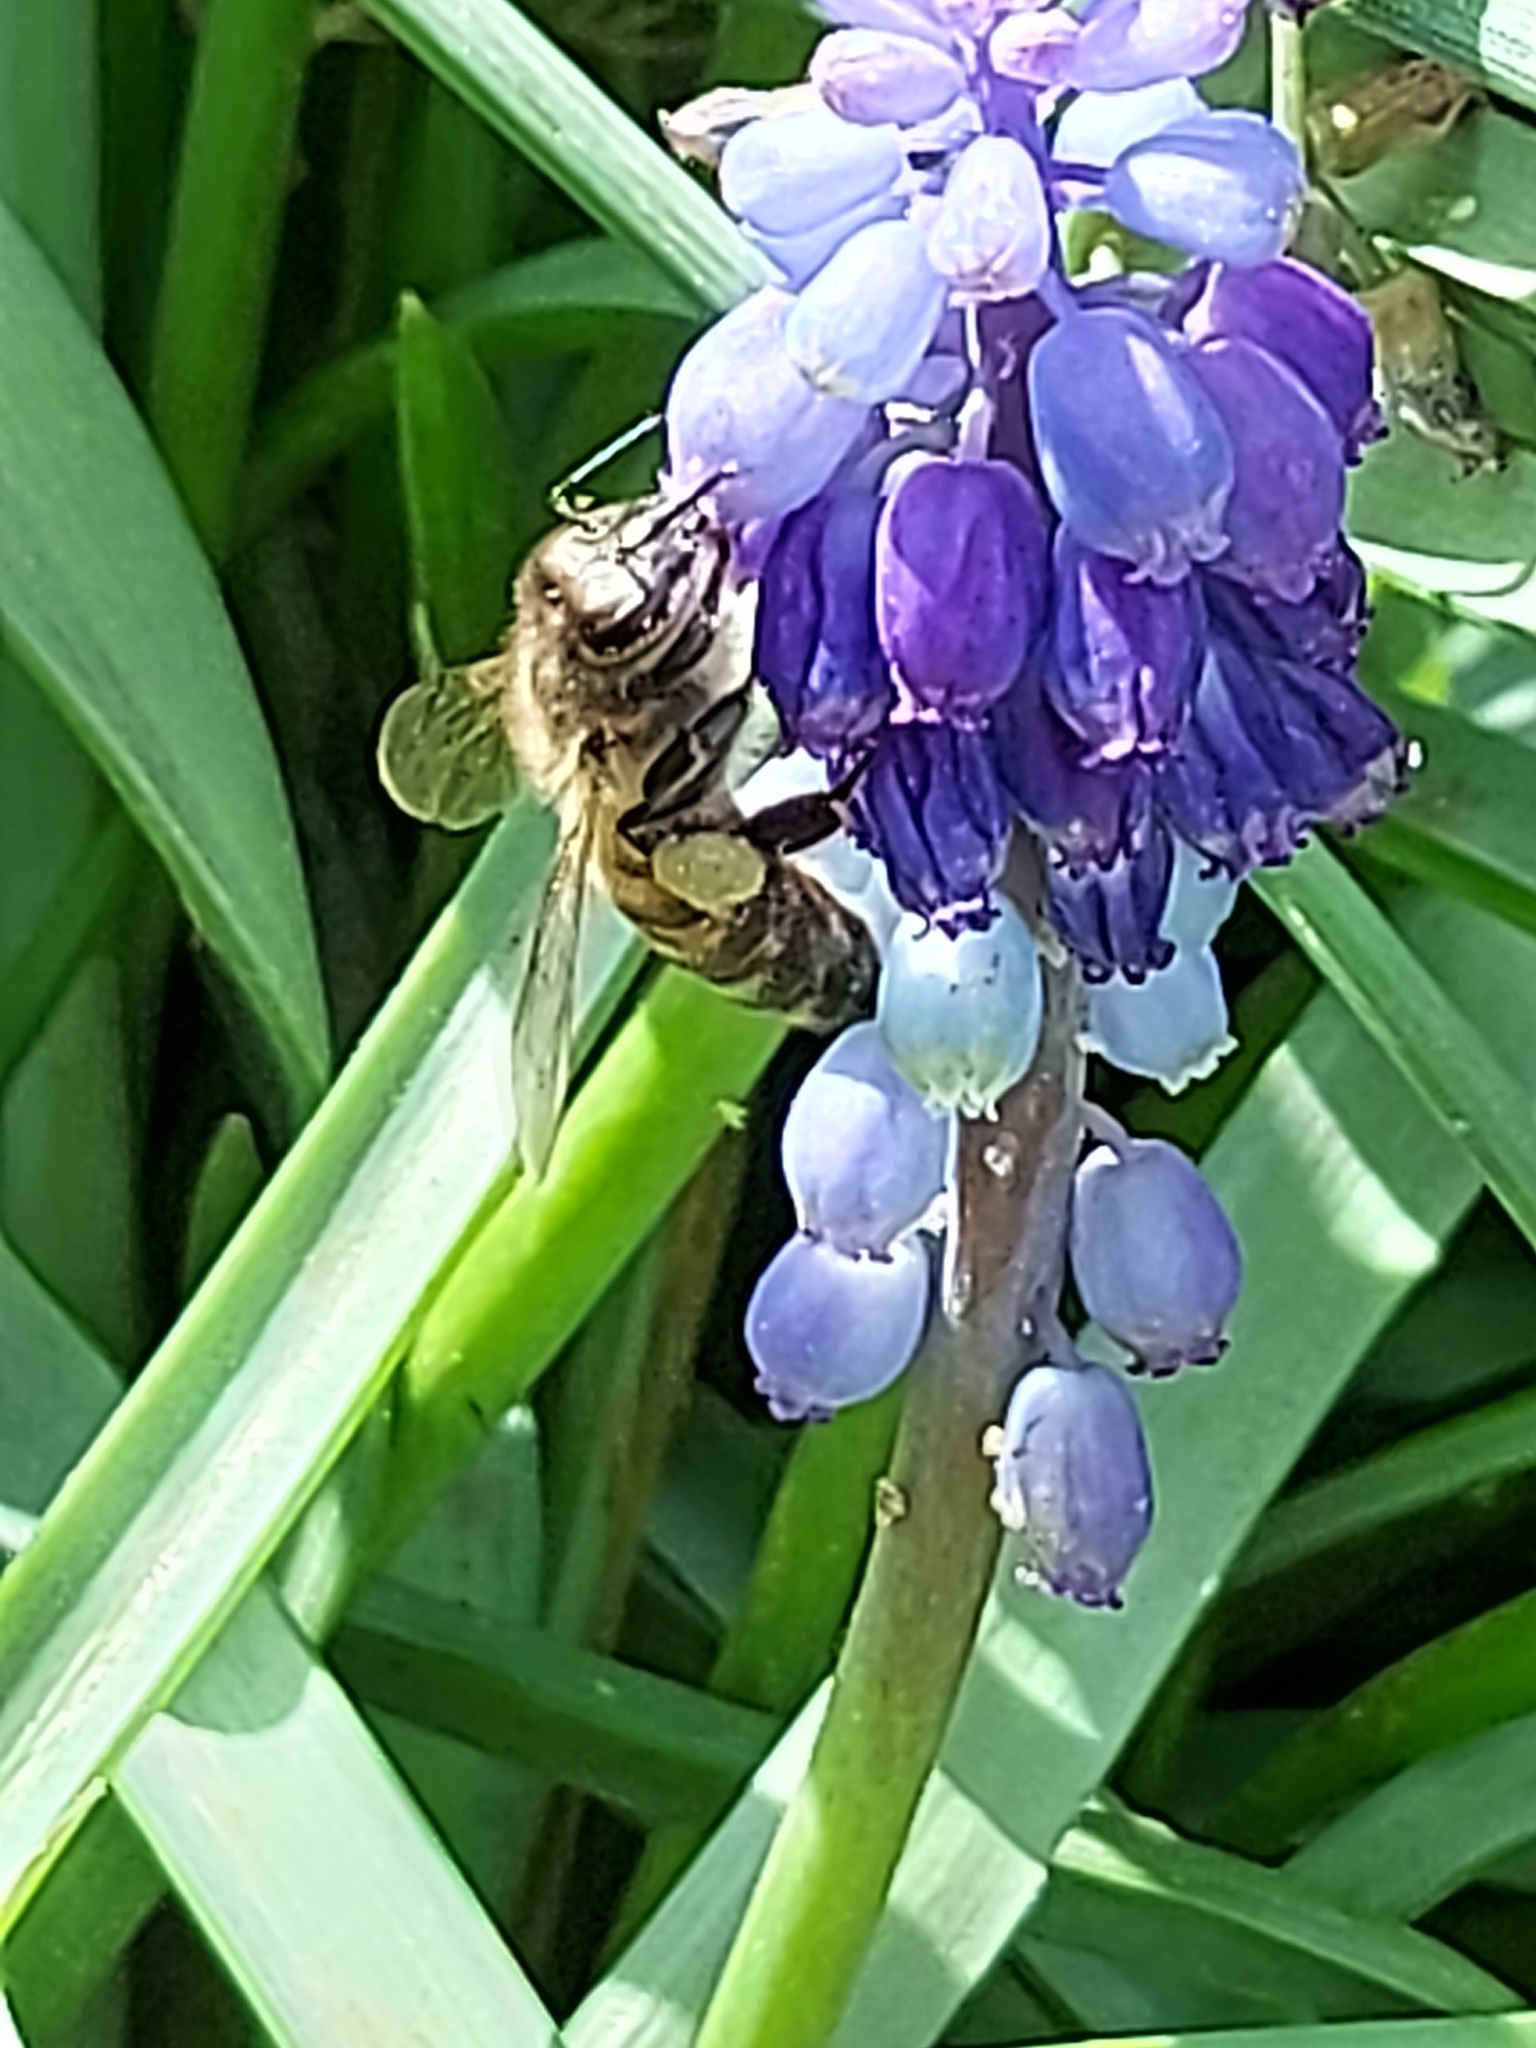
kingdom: Animalia
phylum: Arthropoda
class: Insecta
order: Hymenoptera
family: Apidae
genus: Apis
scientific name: Apis mellifera
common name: Honey bee
